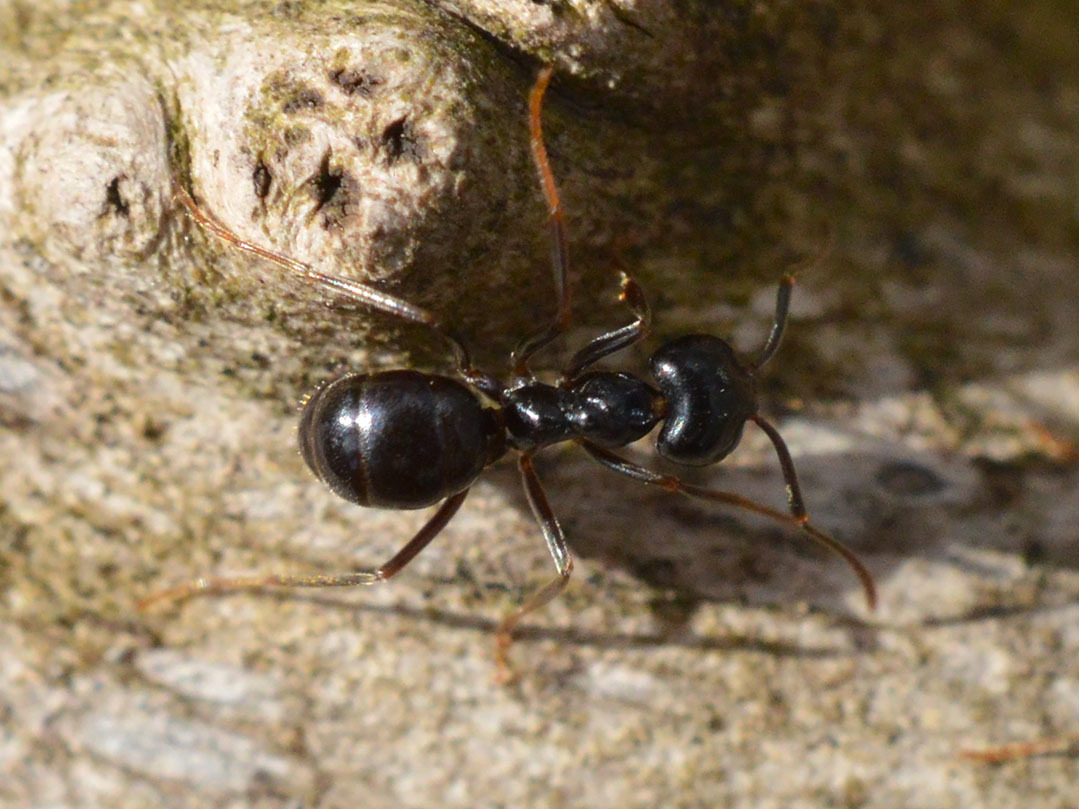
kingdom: Animalia
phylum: Arthropoda
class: Insecta
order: Hymenoptera
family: Formicidae
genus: Lasius
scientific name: Lasius fuliginosus
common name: Jet ant
